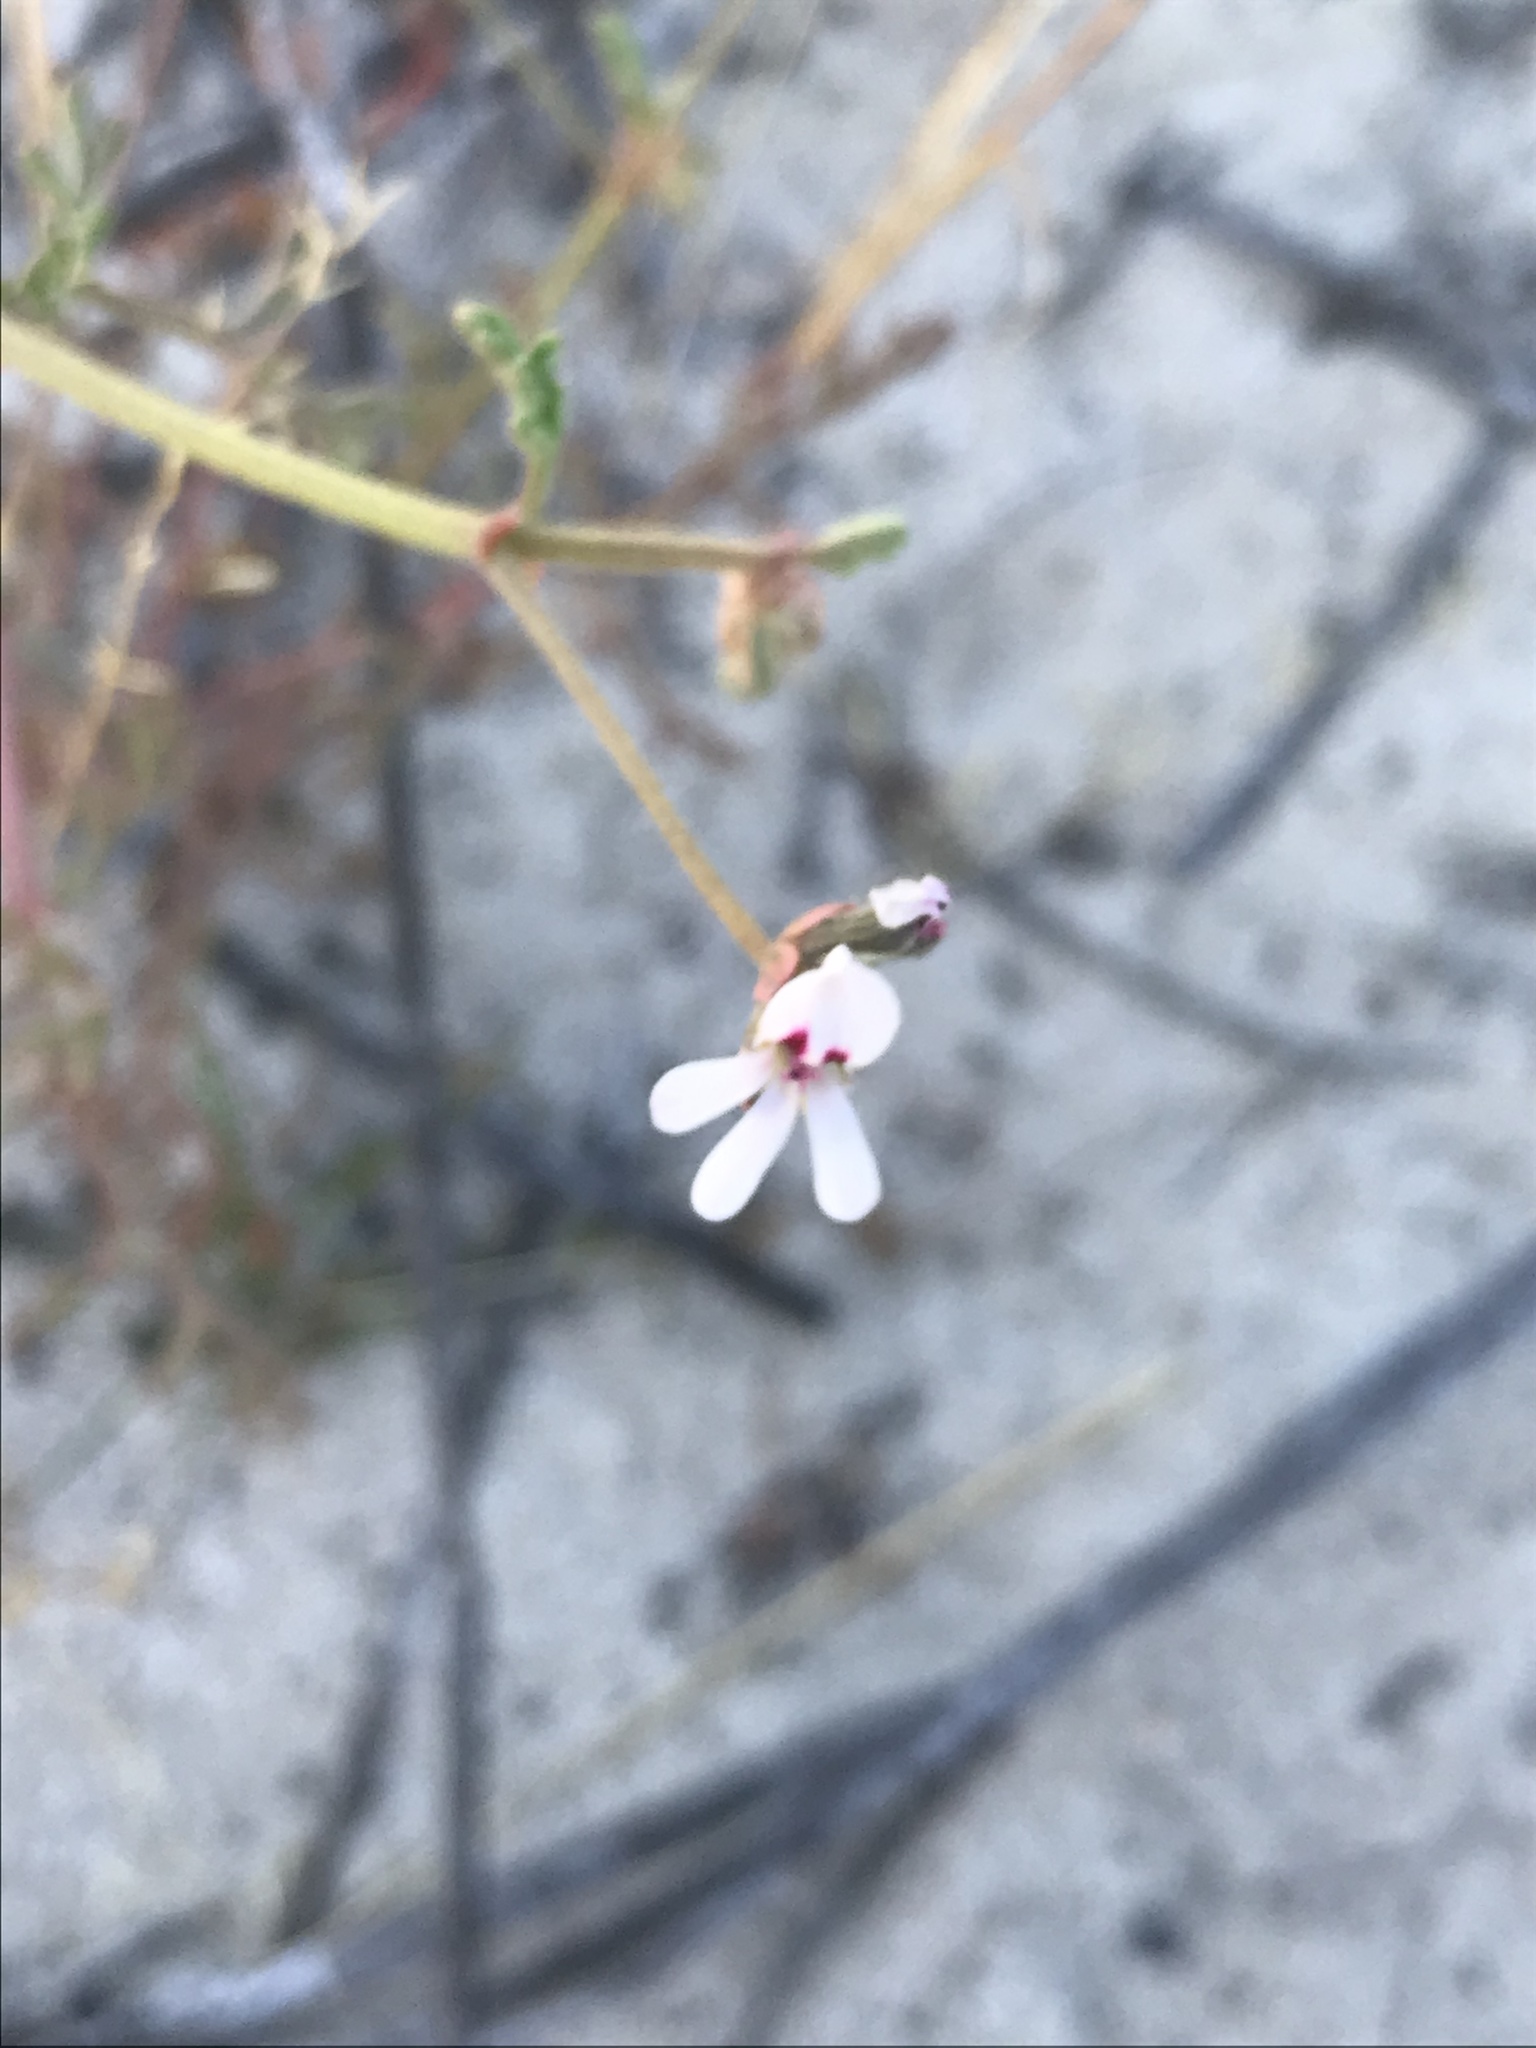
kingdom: Plantae
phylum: Tracheophyta
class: Magnoliopsida
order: Geraniales
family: Geraniaceae
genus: Pelargonium
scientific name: Pelargonium senecioides
